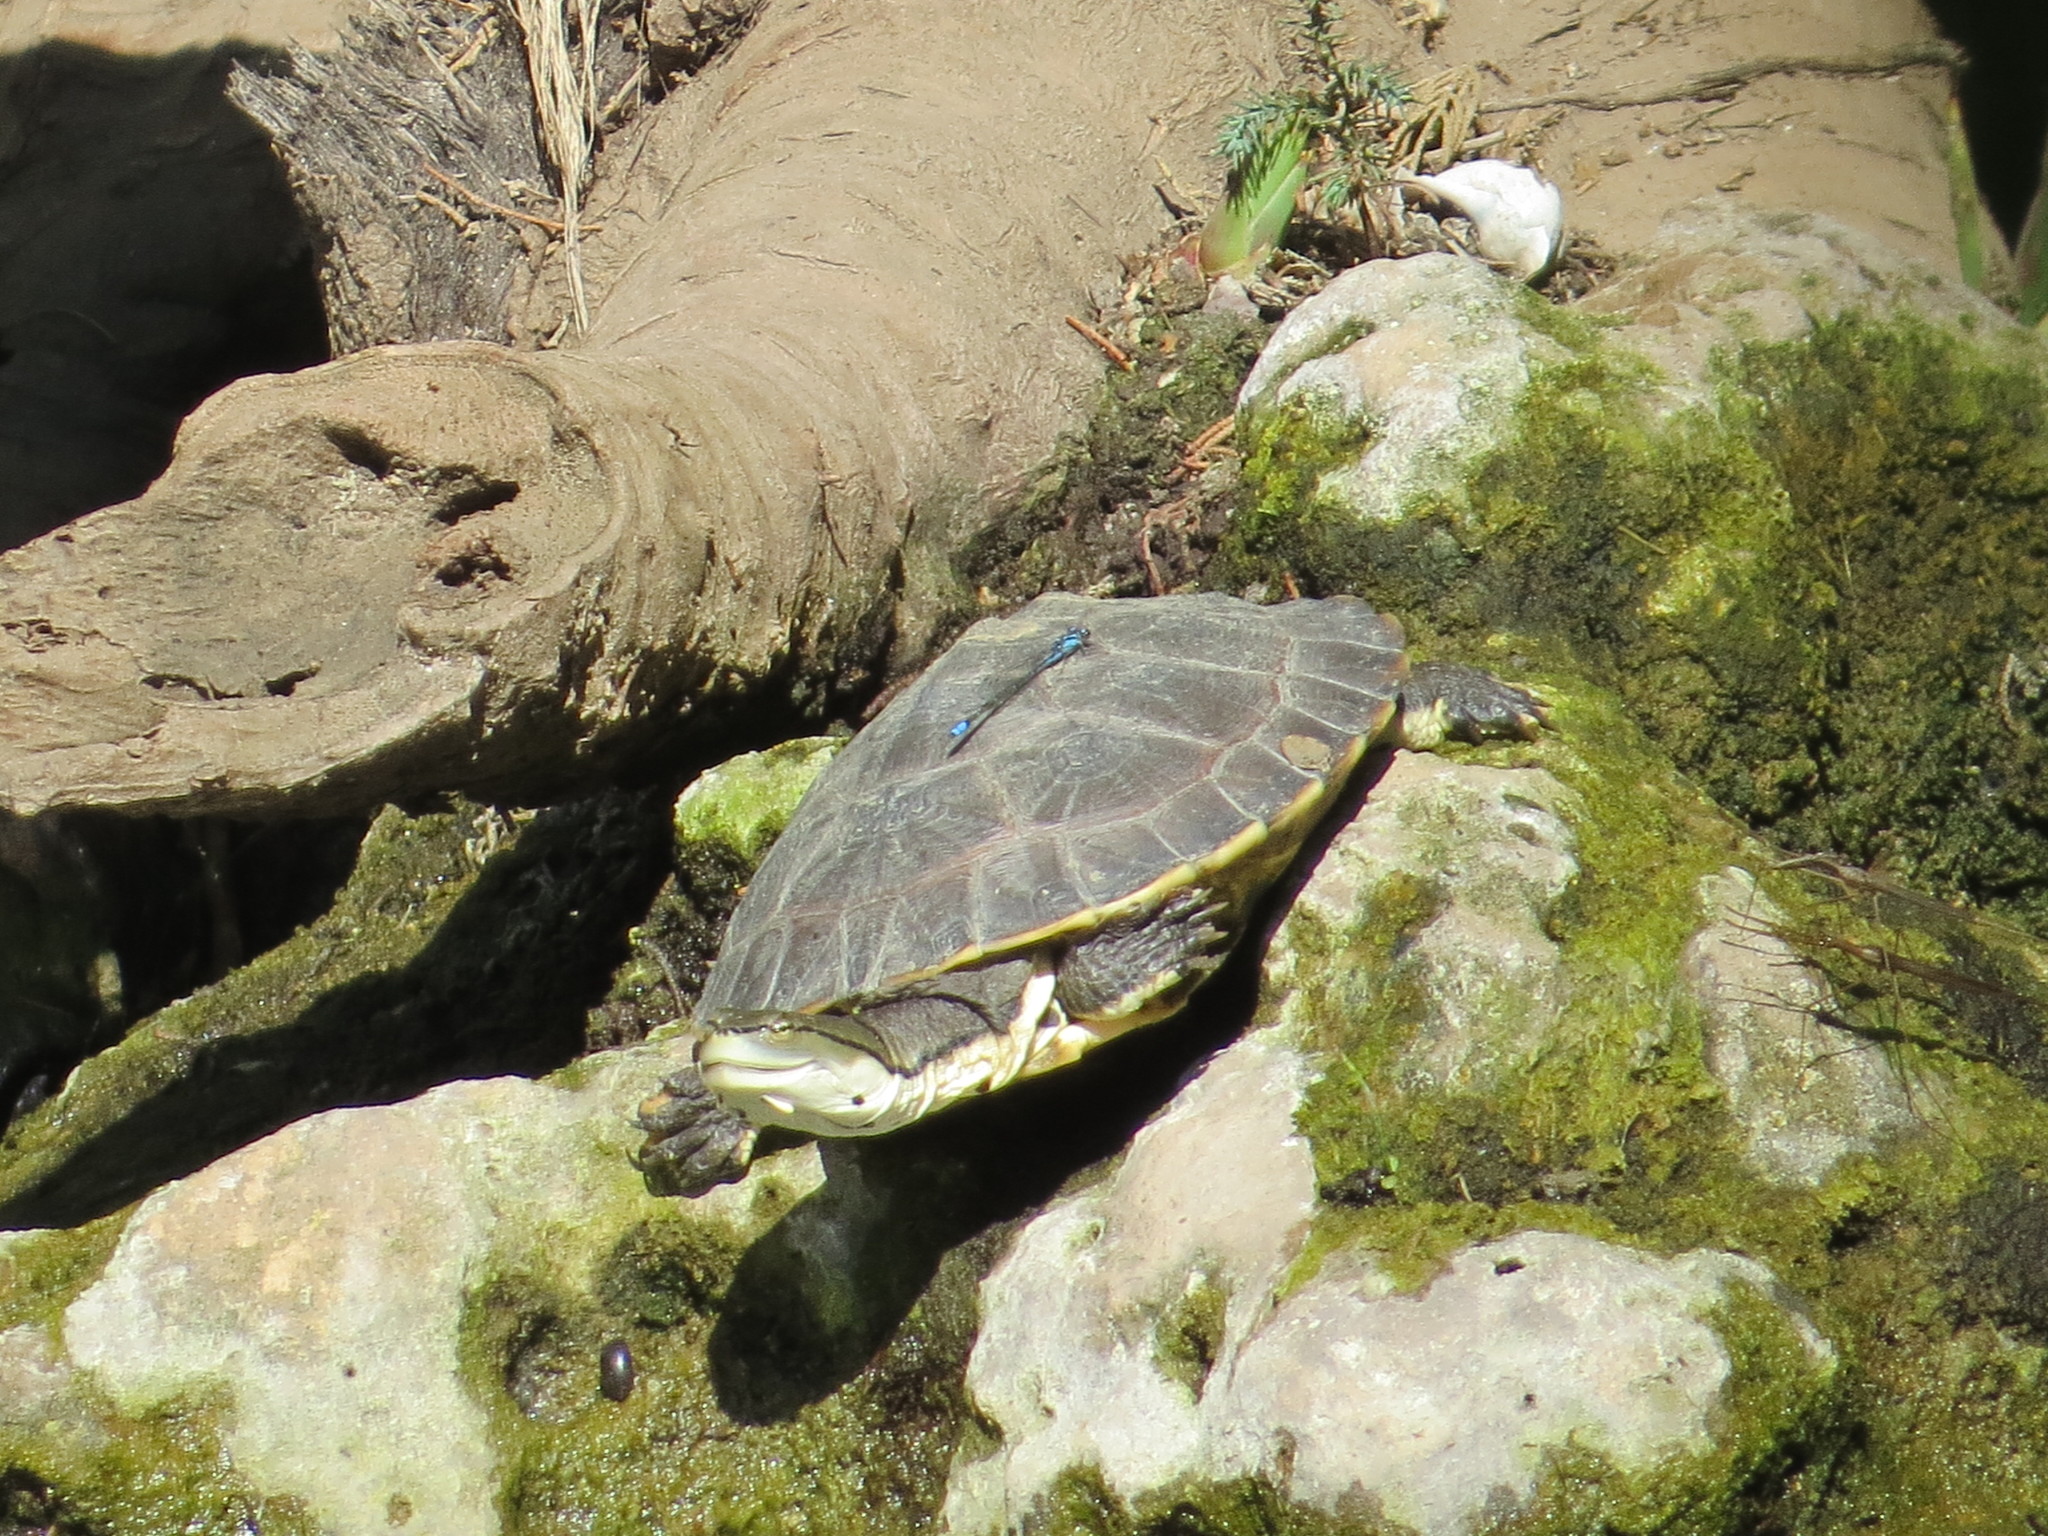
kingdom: Animalia
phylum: Chordata
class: Testudines
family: Chelidae
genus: Phrynops
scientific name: Phrynops hilarii
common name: Side-necked turtle of saint hillaire
